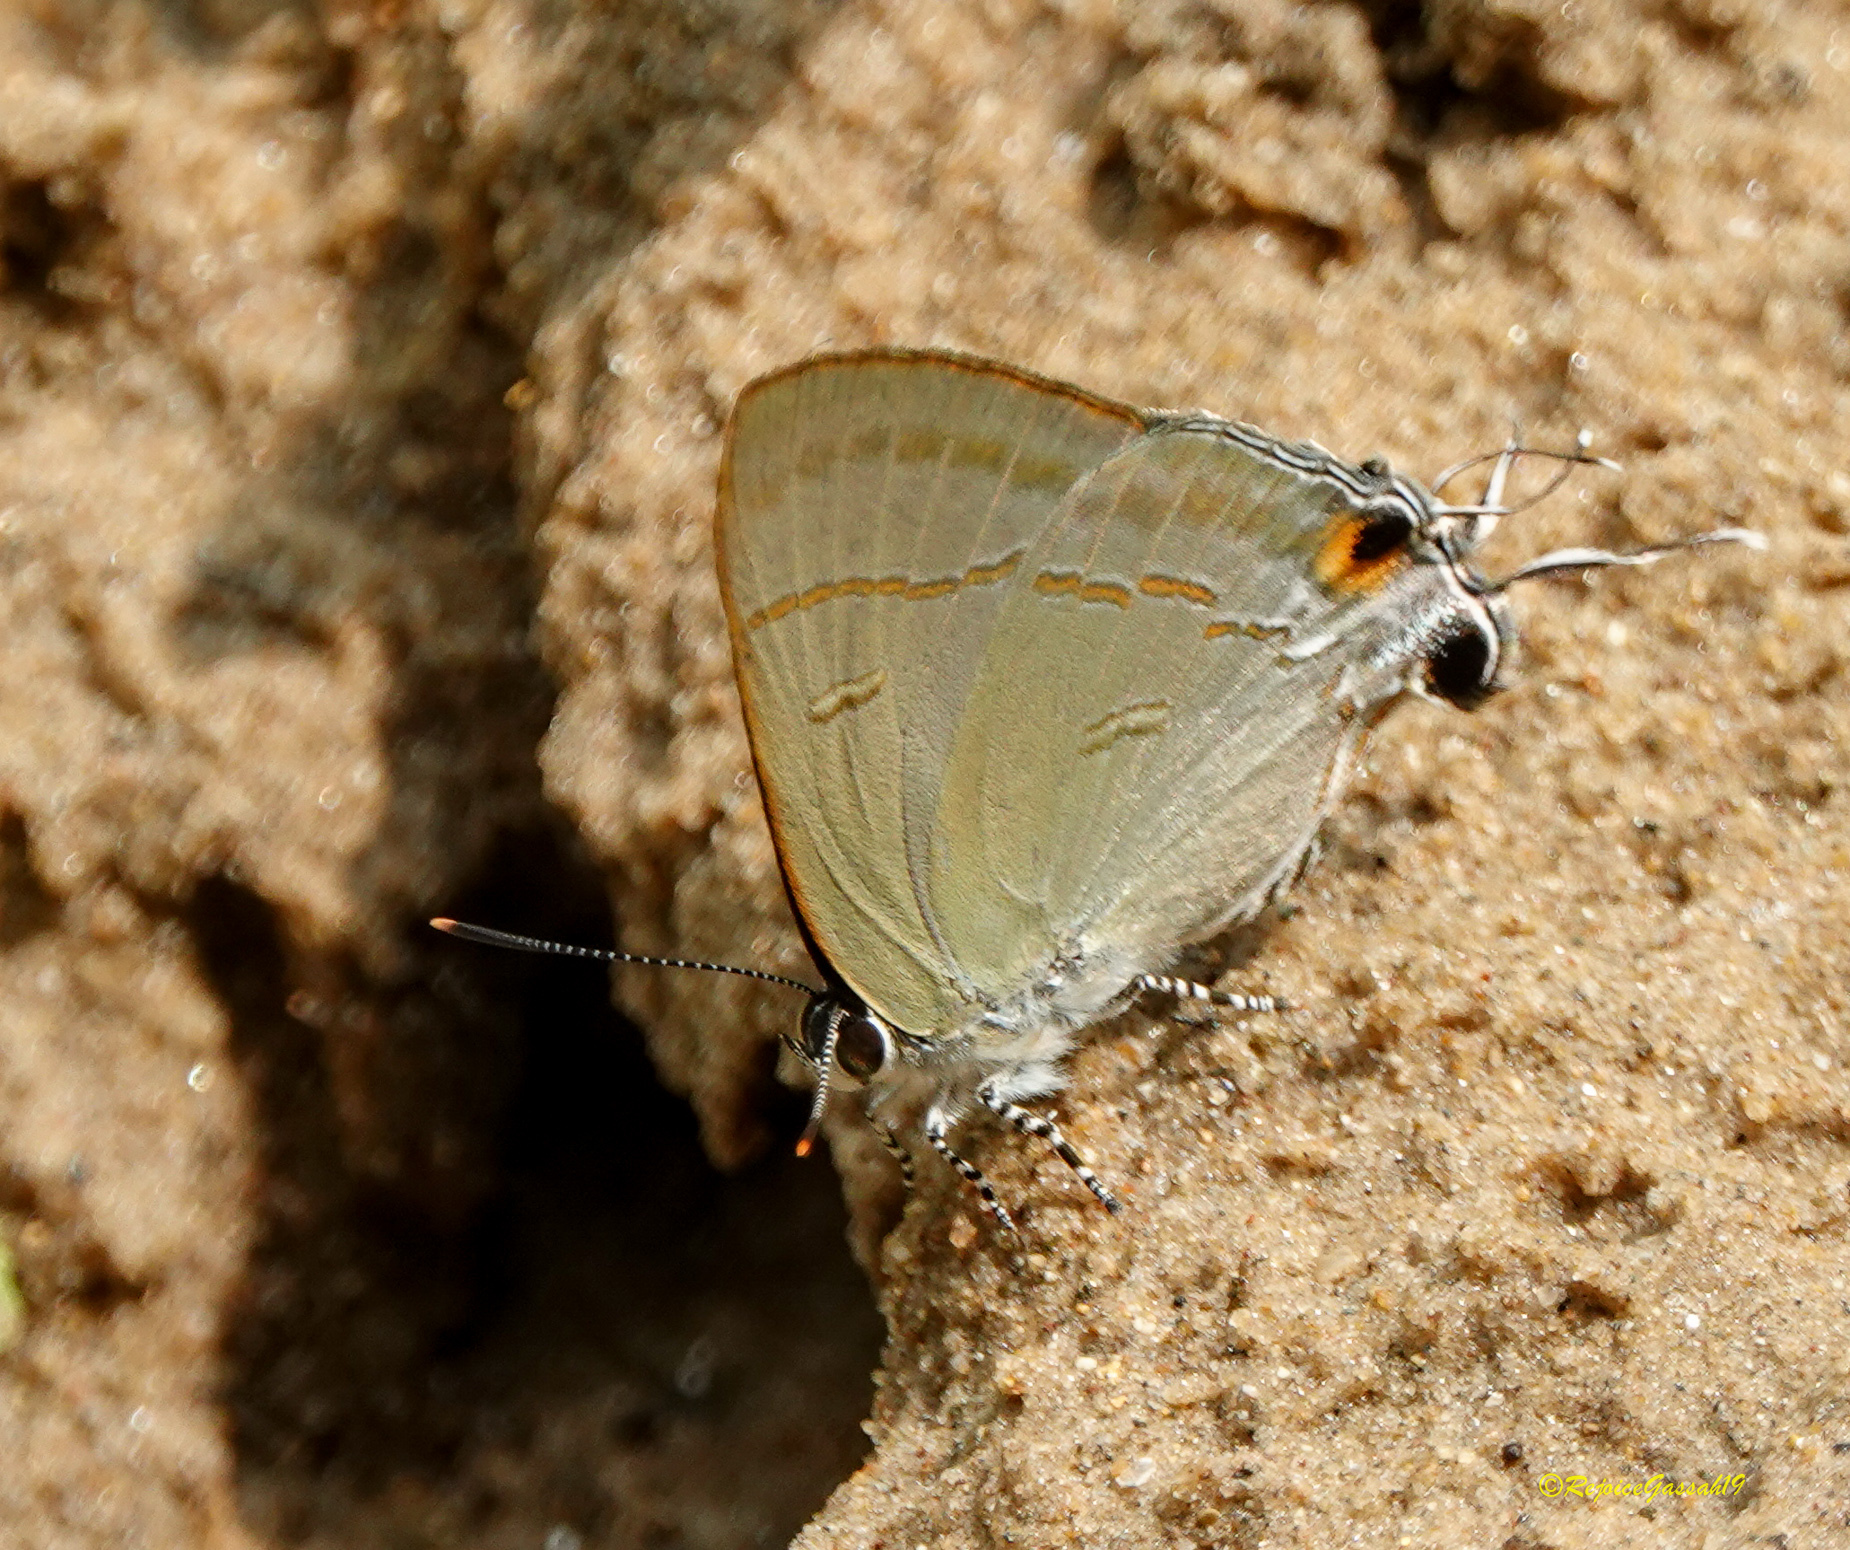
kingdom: Animalia
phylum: Arthropoda
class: Insecta
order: Lepidoptera
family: Lycaenidae
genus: Hypolycaena
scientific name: Hypolycaena erylus
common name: Common tit
